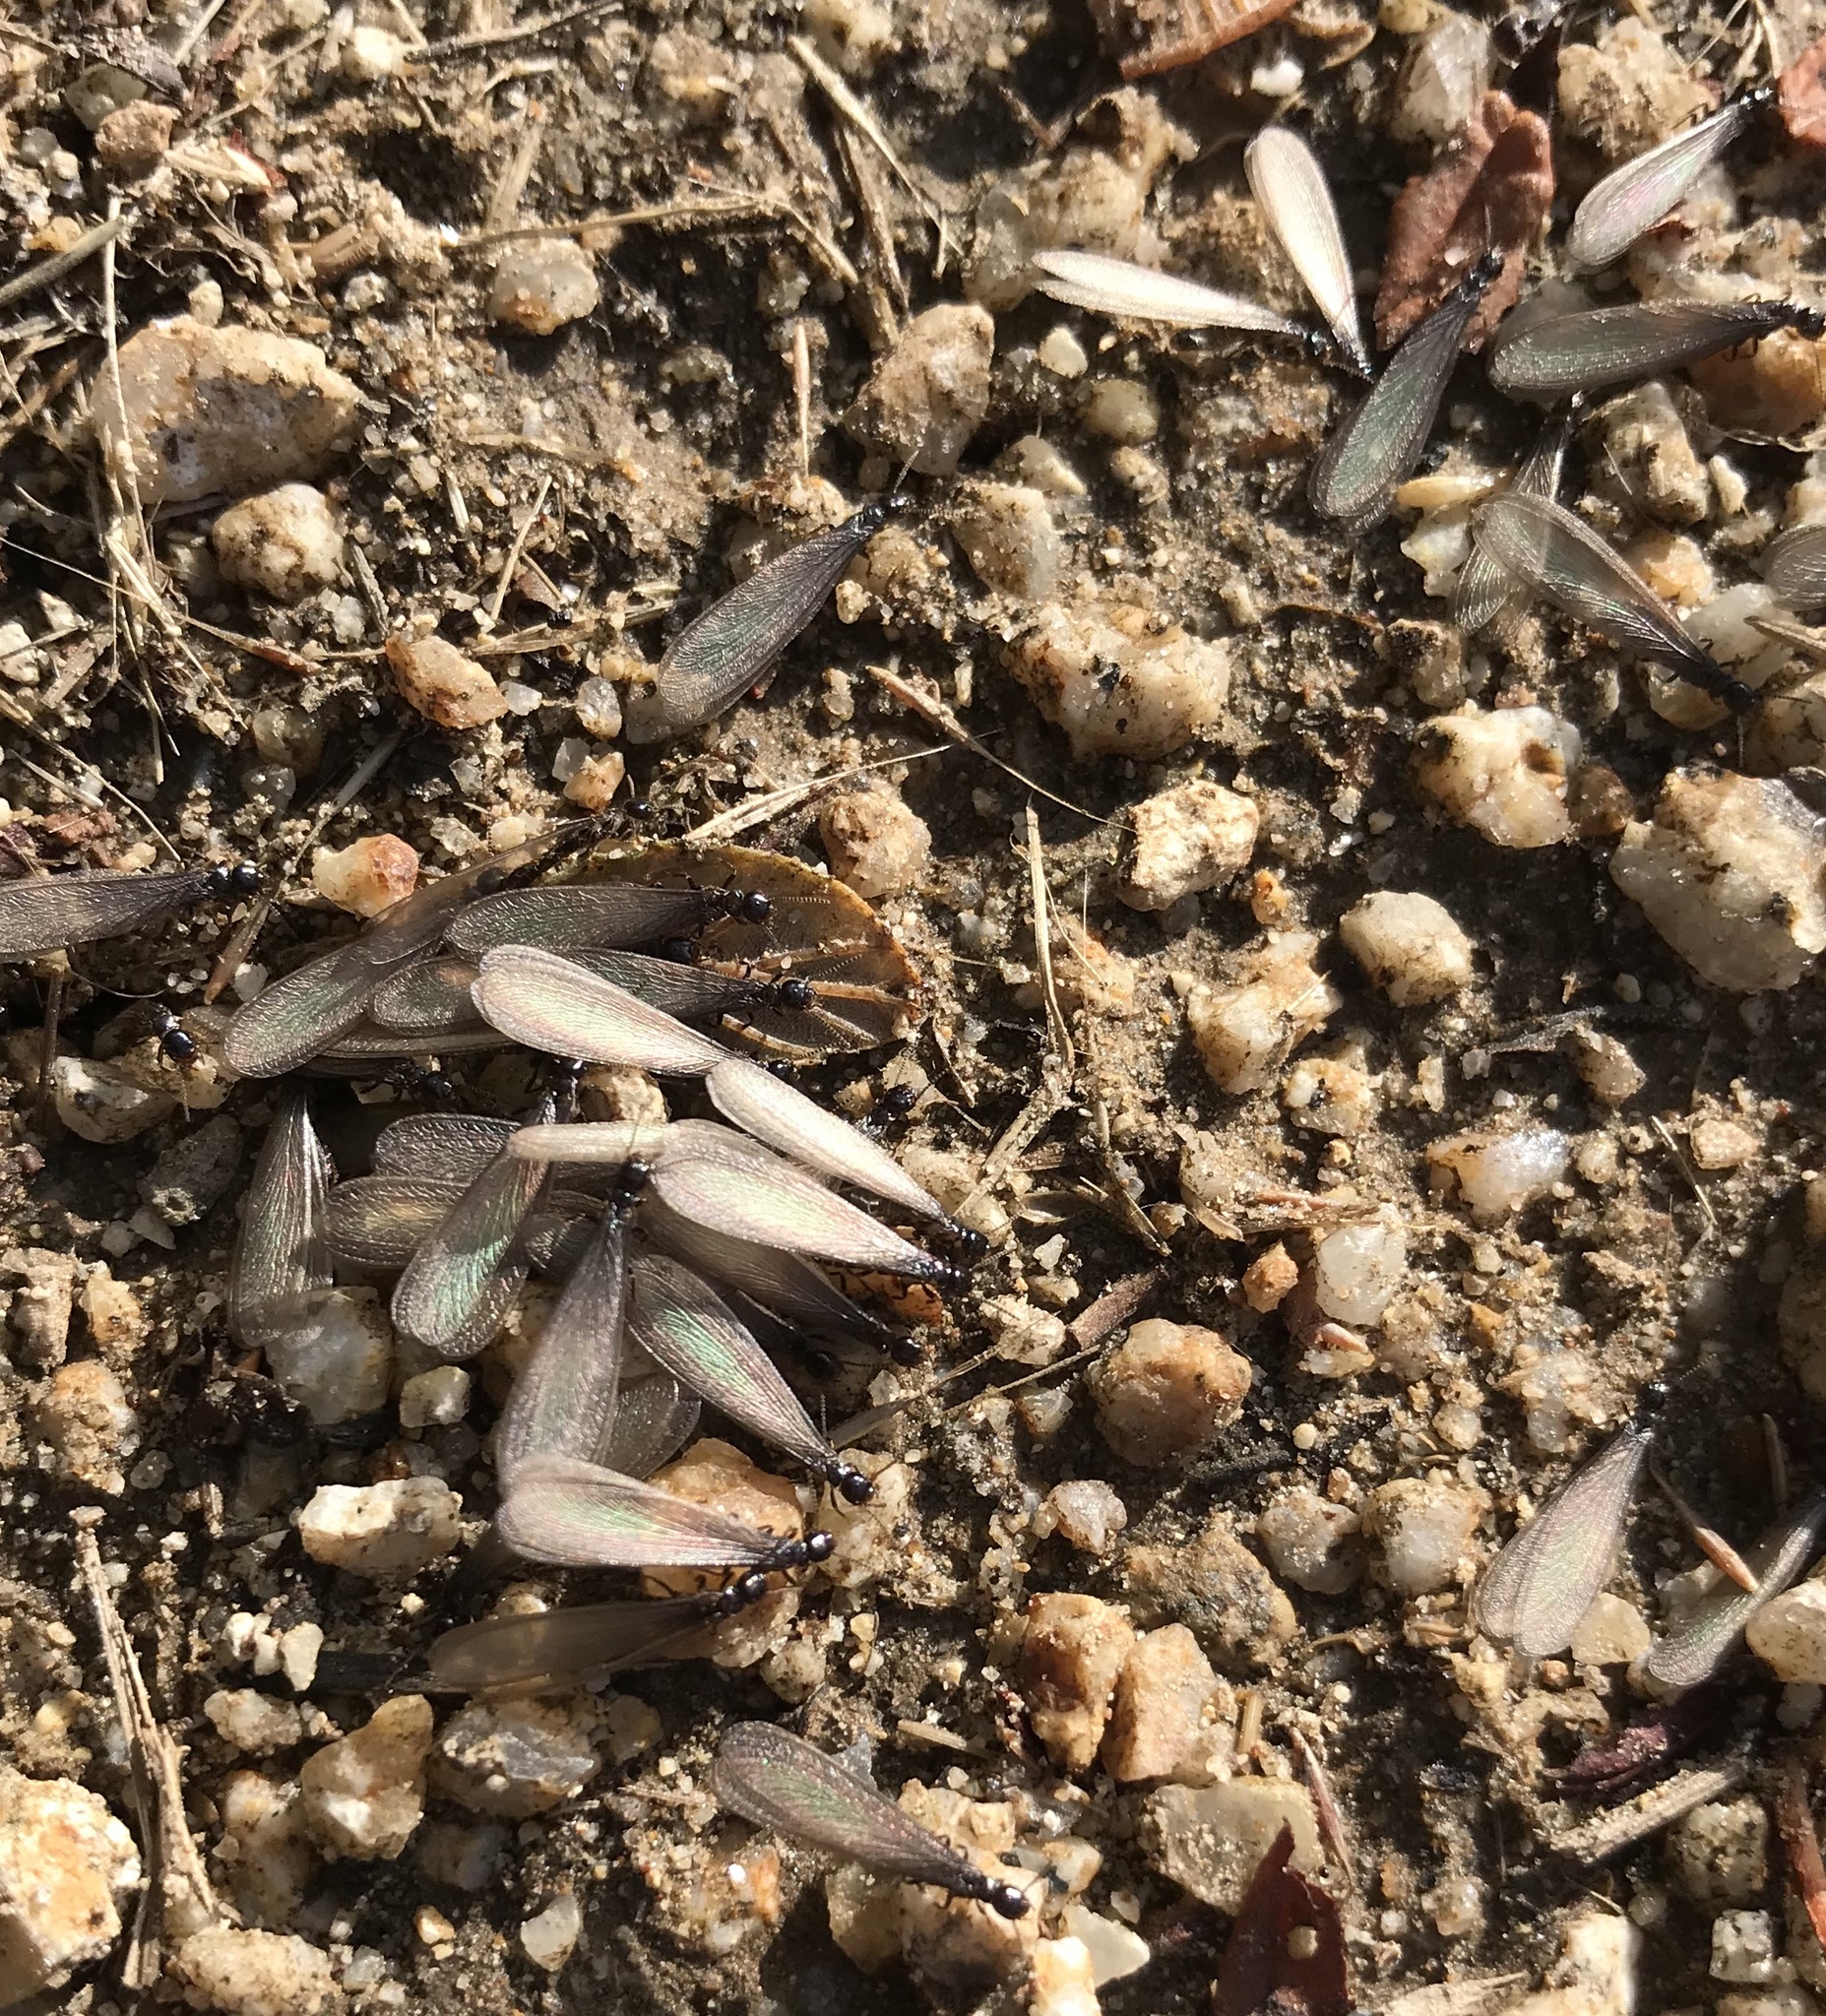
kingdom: Animalia
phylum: Arthropoda
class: Insecta
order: Blattodea
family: Rhinotermitidae
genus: Reticulitermes
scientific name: Reticulitermes hesperus
